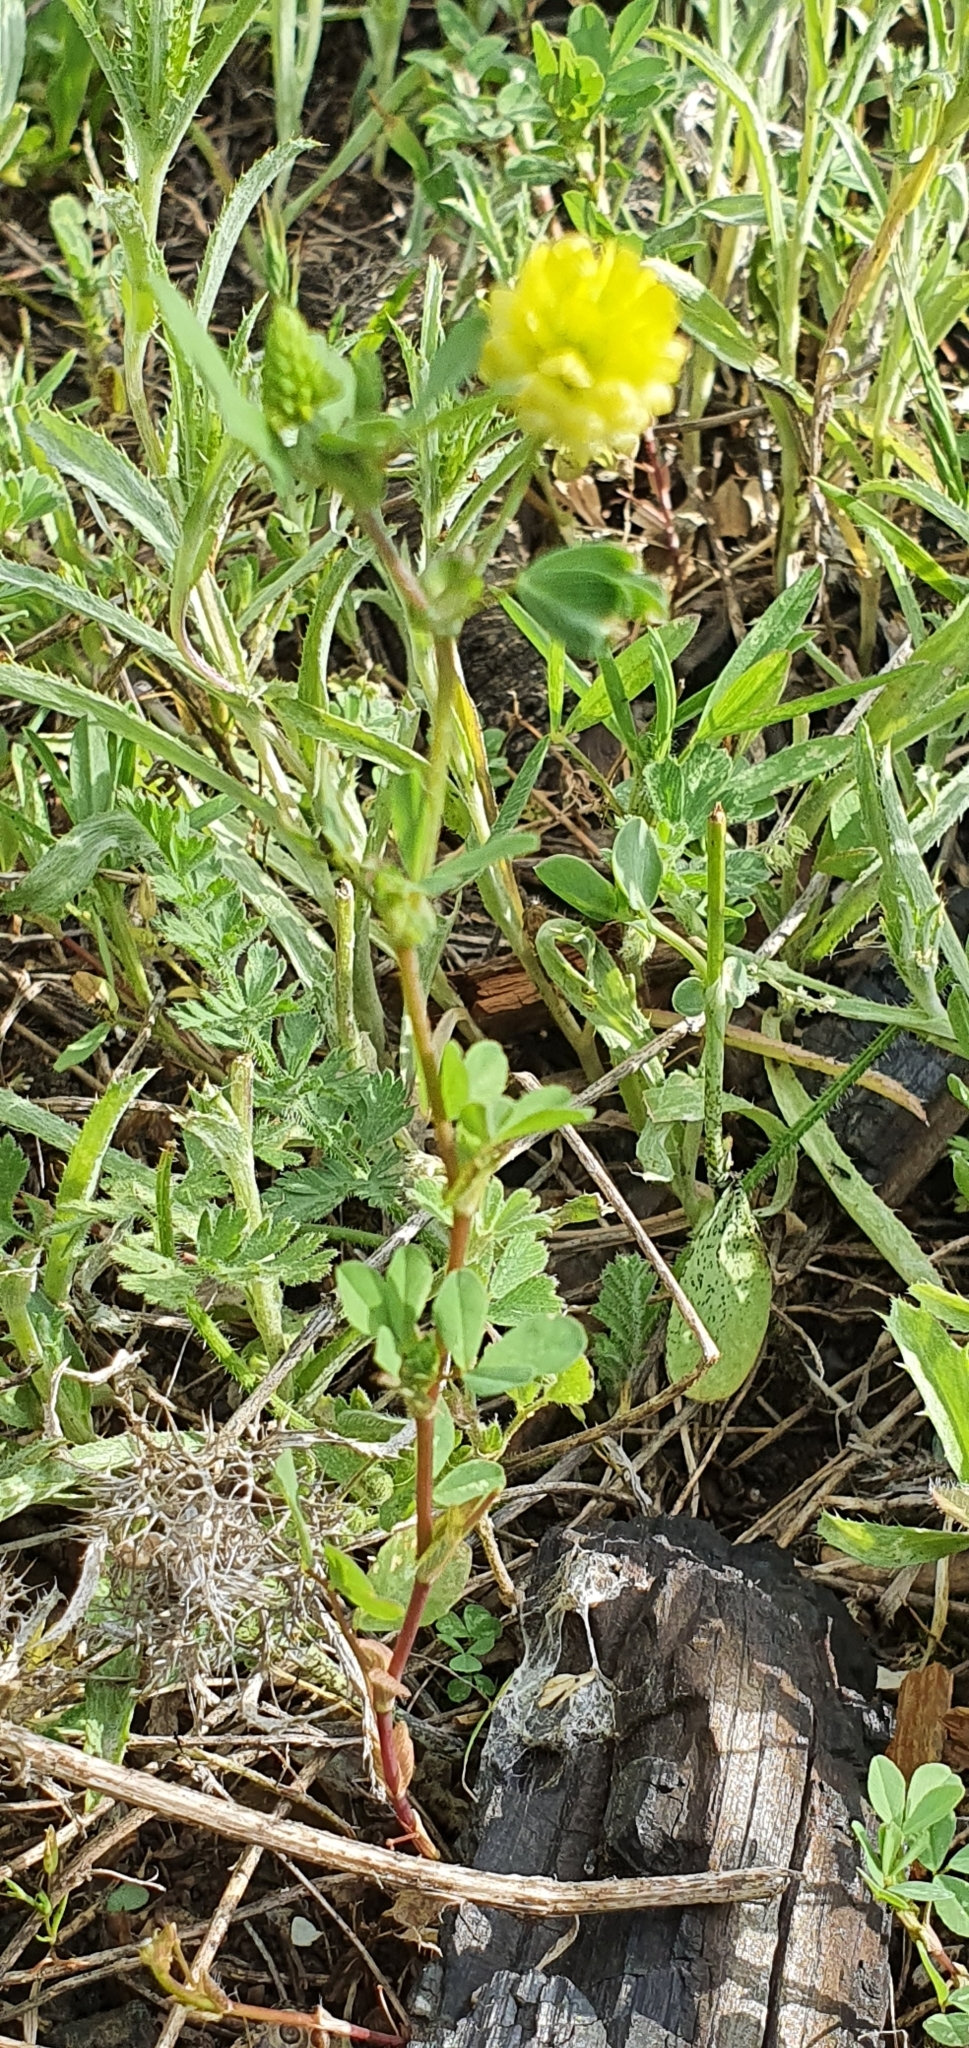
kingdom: Plantae
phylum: Tracheophyta
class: Magnoliopsida
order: Fabales
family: Fabaceae
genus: Trifolium
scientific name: Trifolium campestre
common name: Field clover
